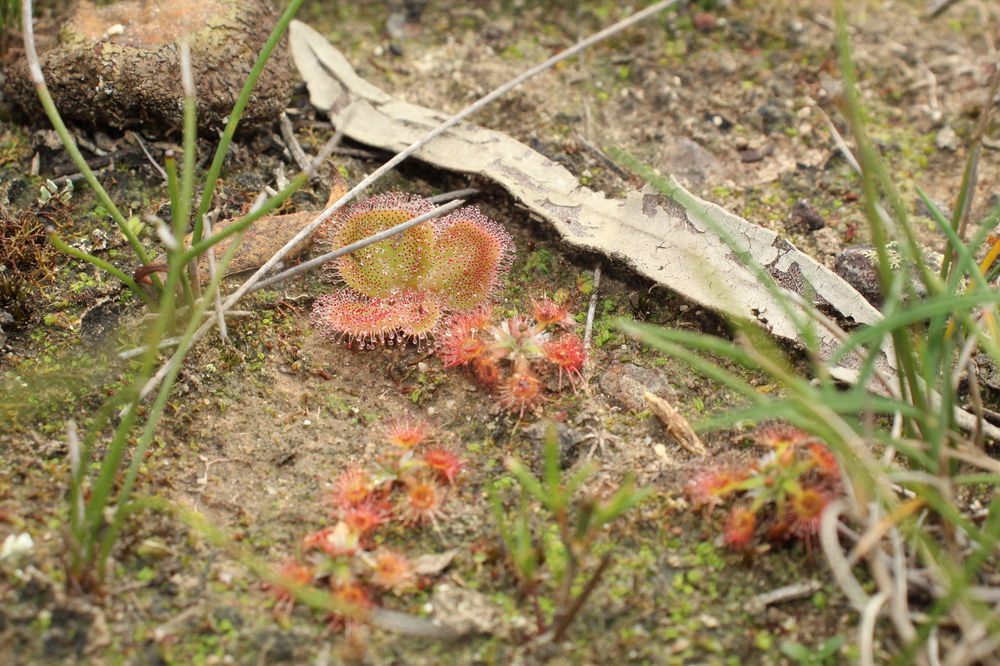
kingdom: Plantae
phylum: Tracheophyta
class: Magnoliopsida
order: Caryophyllales
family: Droseraceae
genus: Drosera
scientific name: Drosera erythrorhiza
